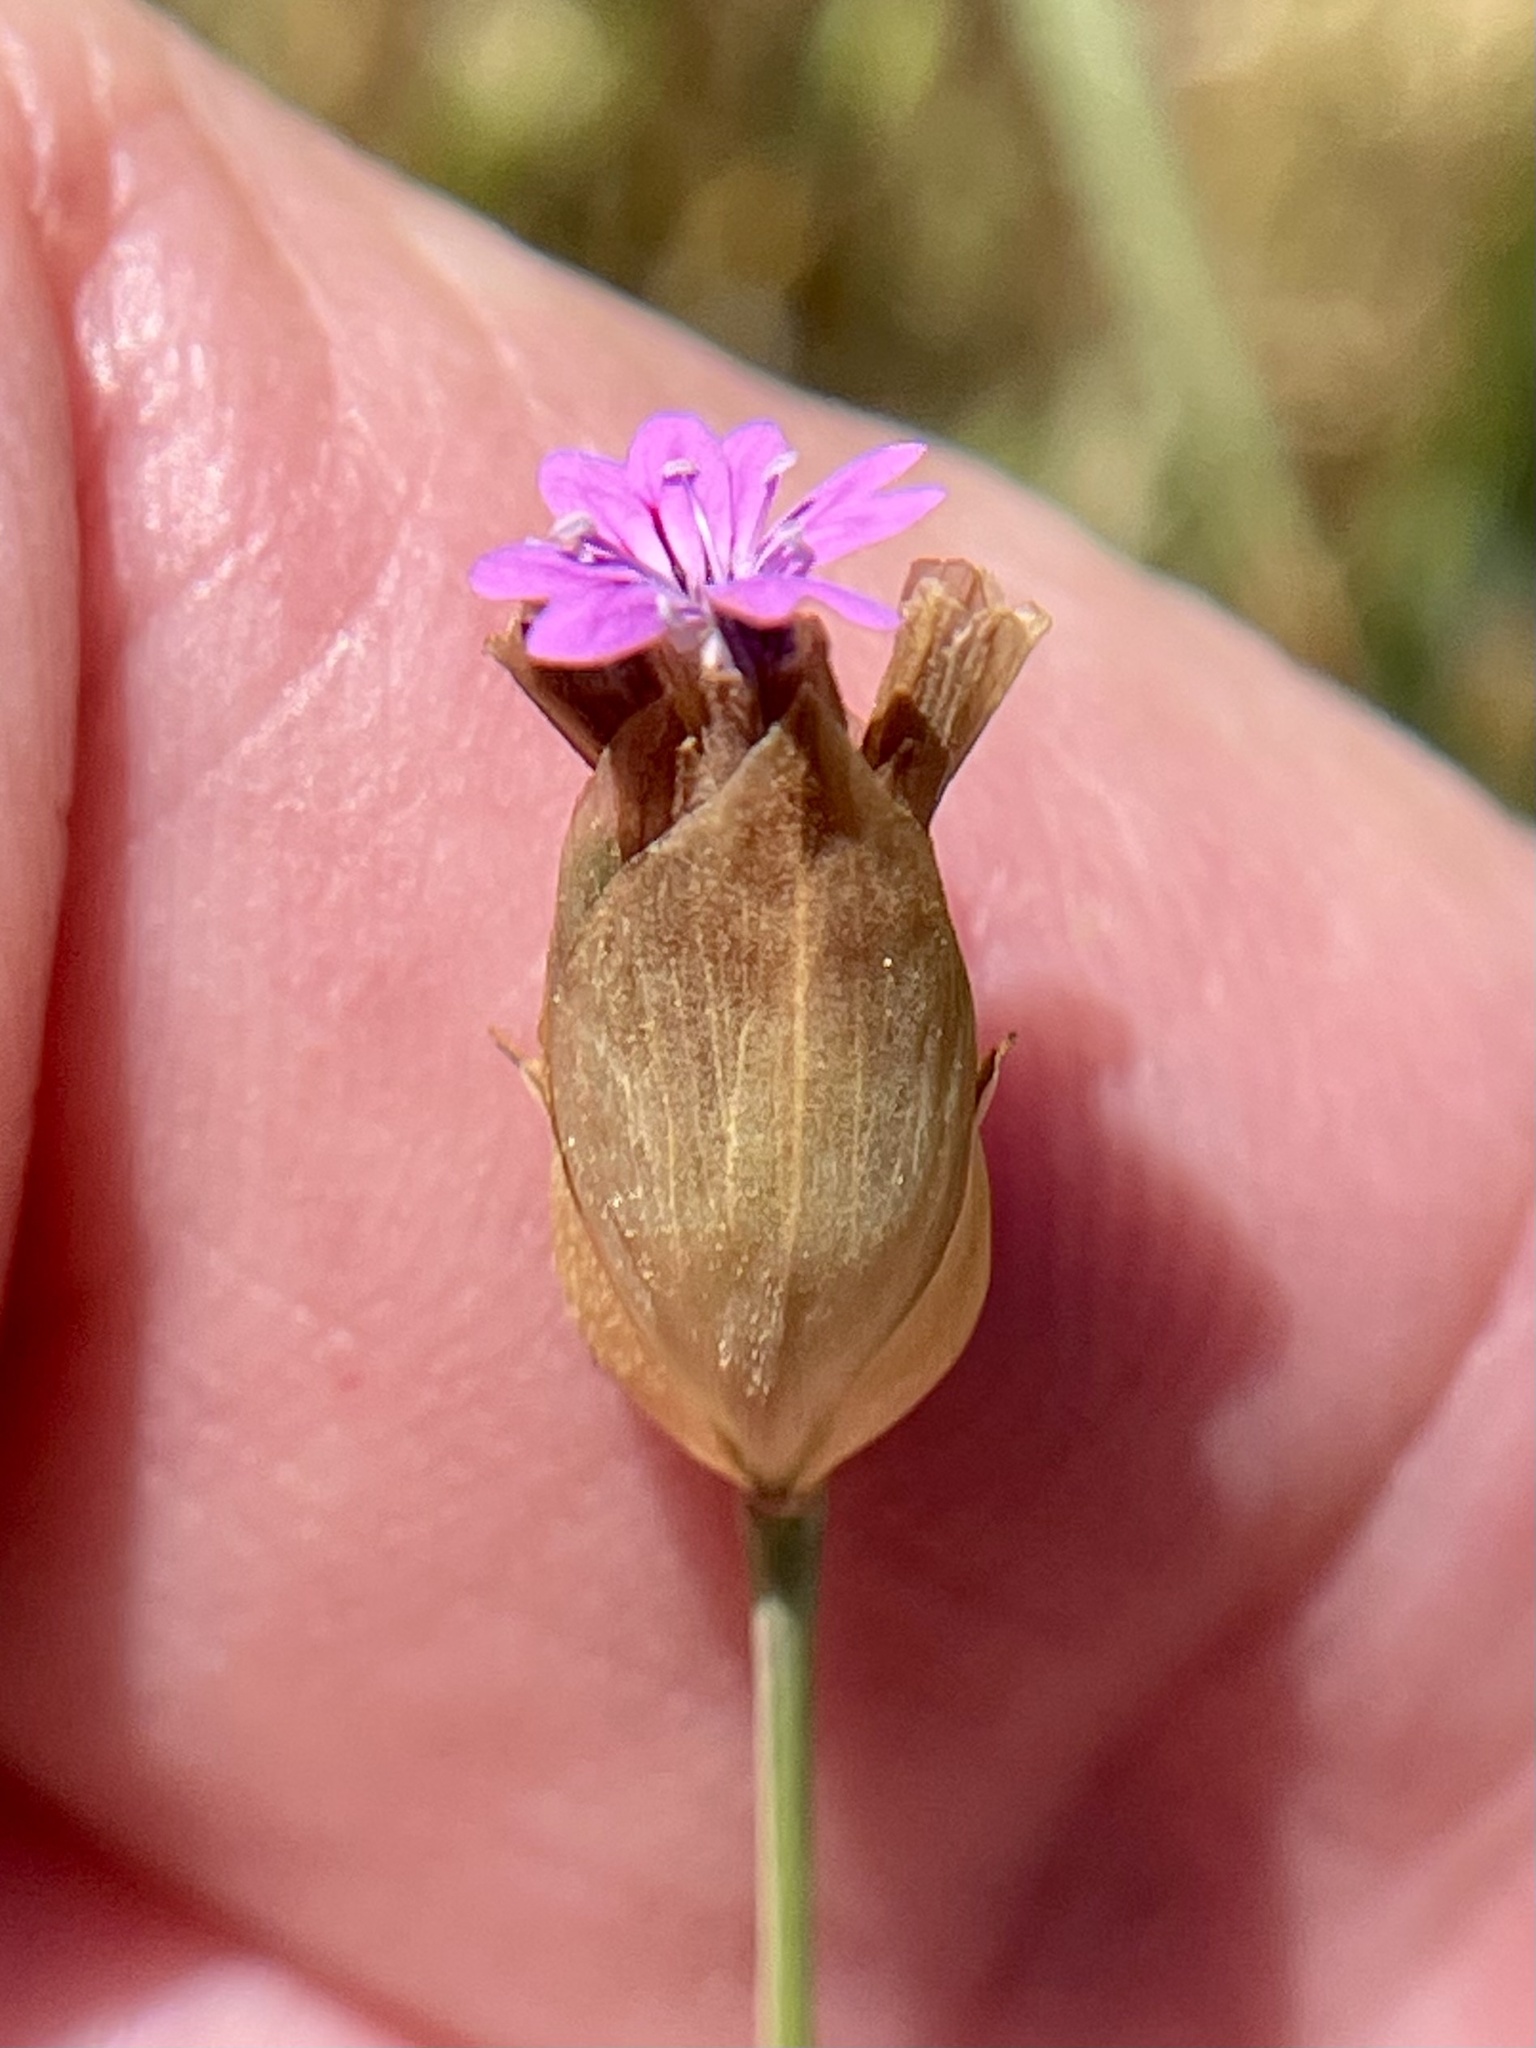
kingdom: Plantae
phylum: Tracheophyta
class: Magnoliopsida
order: Caryophyllales
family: Caryophyllaceae
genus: Petrorhagia
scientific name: Petrorhagia dubia
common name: Hairypink
